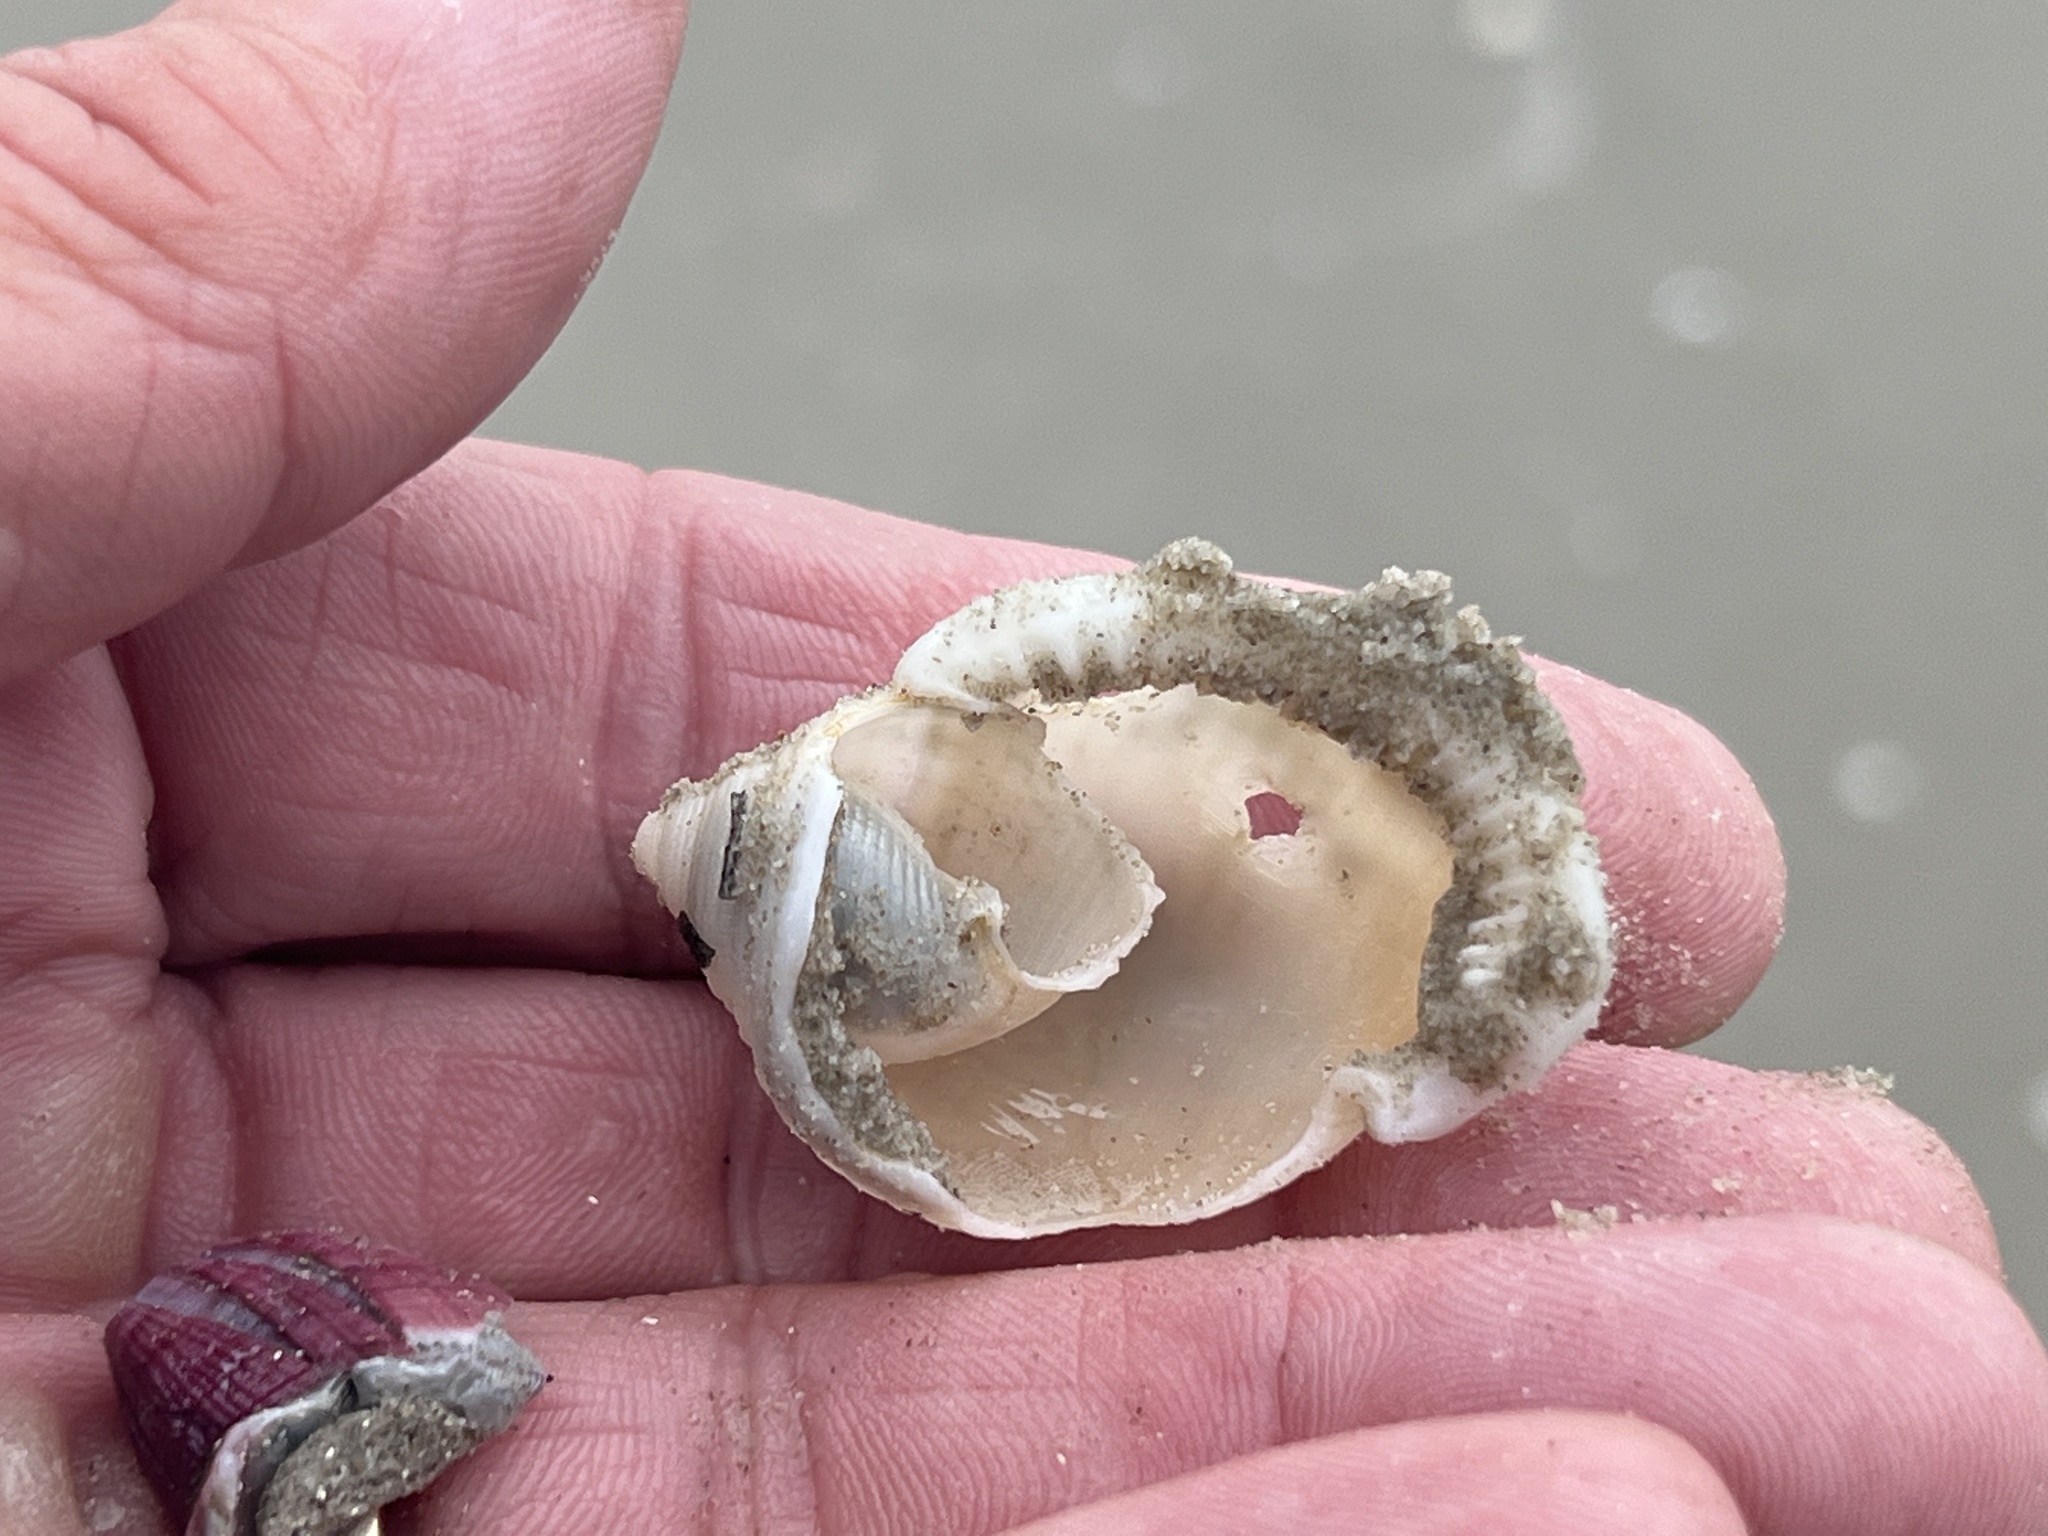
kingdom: Animalia
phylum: Mollusca
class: Gastropoda
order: Littorinimorpha
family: Cassidae
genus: Semicassis
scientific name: Semicassis granulata
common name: Scotch bonnet
